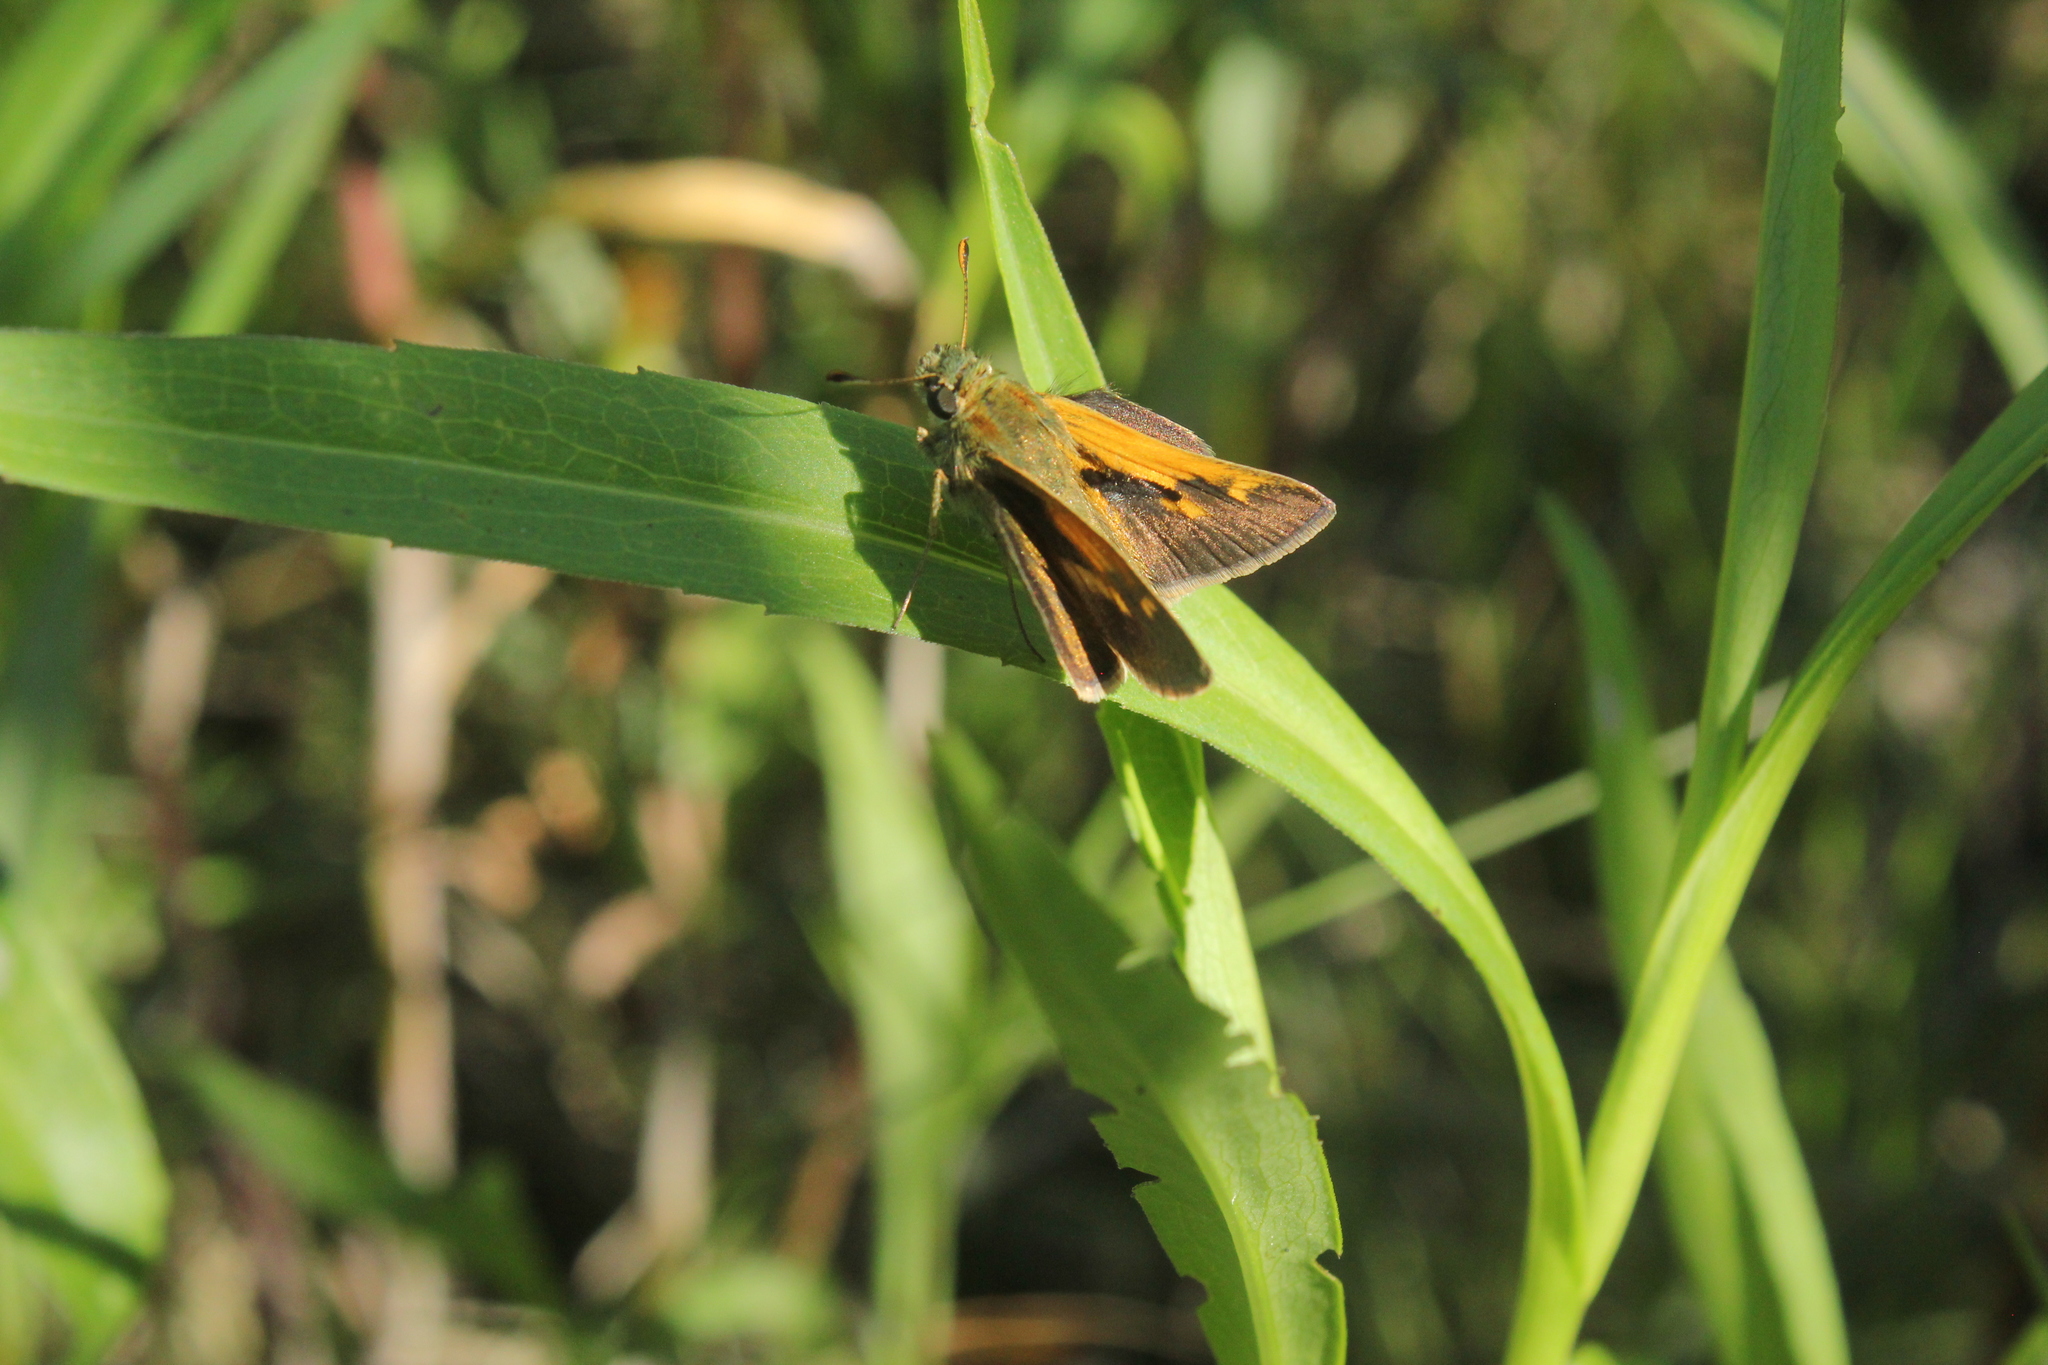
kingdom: Animalia
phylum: Arthropoda
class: Insecta
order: Lepidoptera
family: Hesperiidae
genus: Polites
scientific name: Polites themistocles
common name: Tawny-edged skipper
